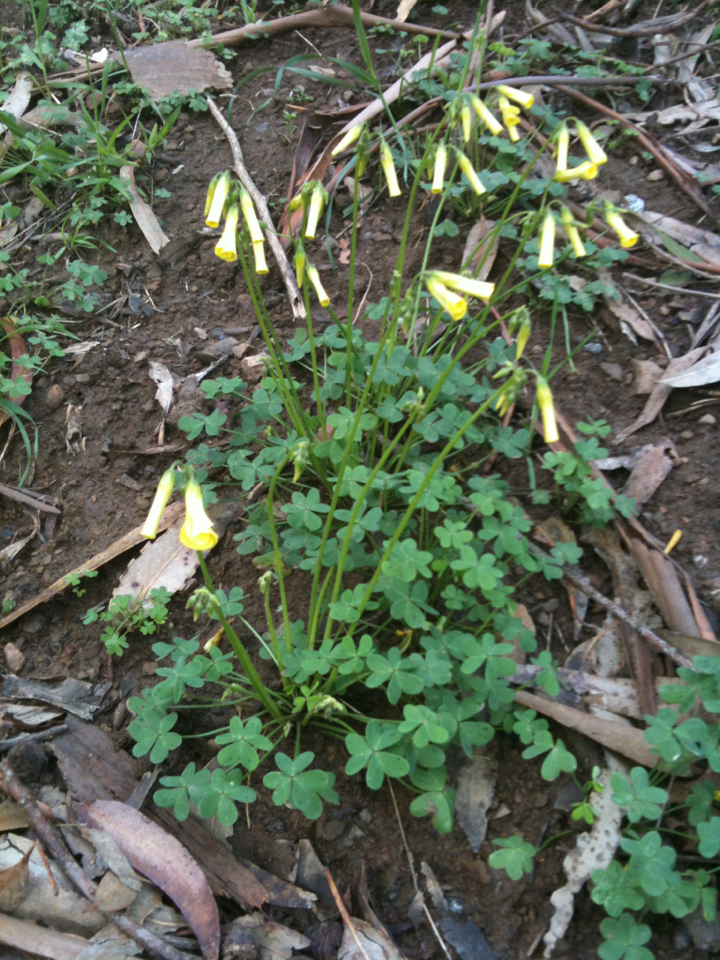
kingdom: Plantae
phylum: Tracheophyta
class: Magnoliopsida
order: Oxalidales
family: Oxalidaceae
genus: Oxalis
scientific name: Oxalis pes-caprae
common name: Bermuda-buttercup
